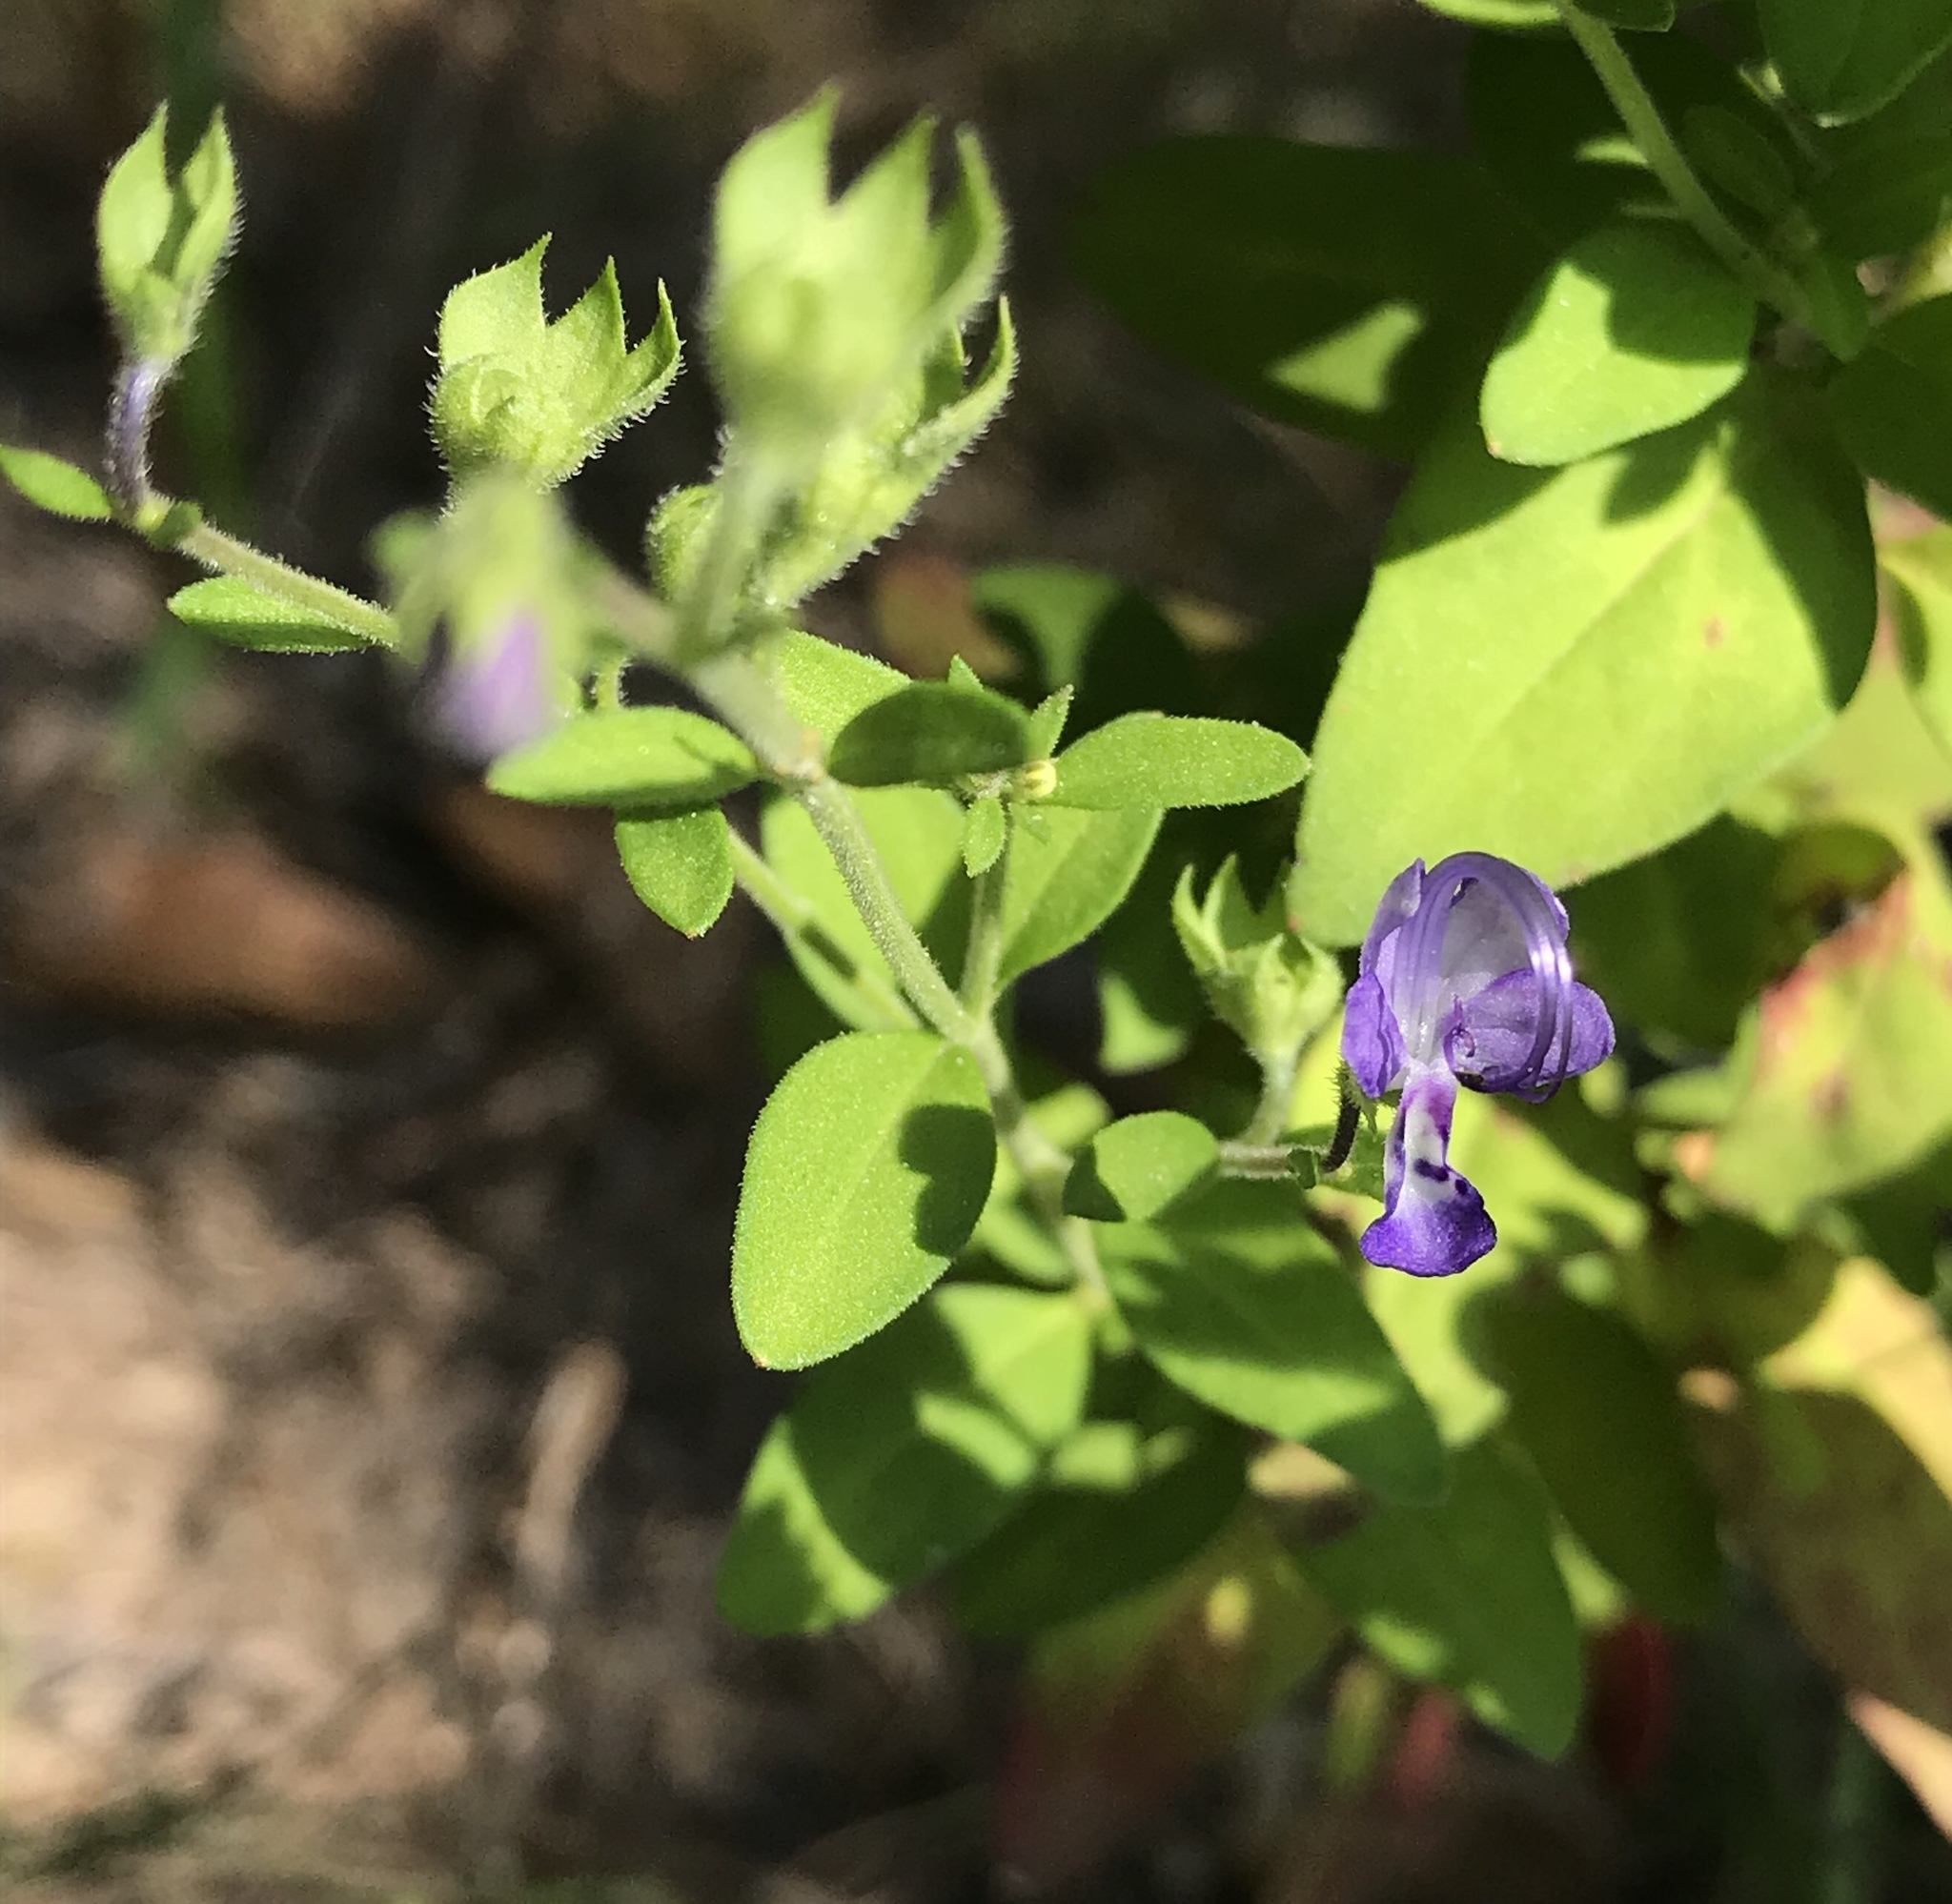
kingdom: Plantae
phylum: Tracheophyta
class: Magnoliopsida
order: Lamiales
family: Lamiaceae
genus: Trichostema
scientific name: Trichostema dichotomum
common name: Bastard pennyroyal
